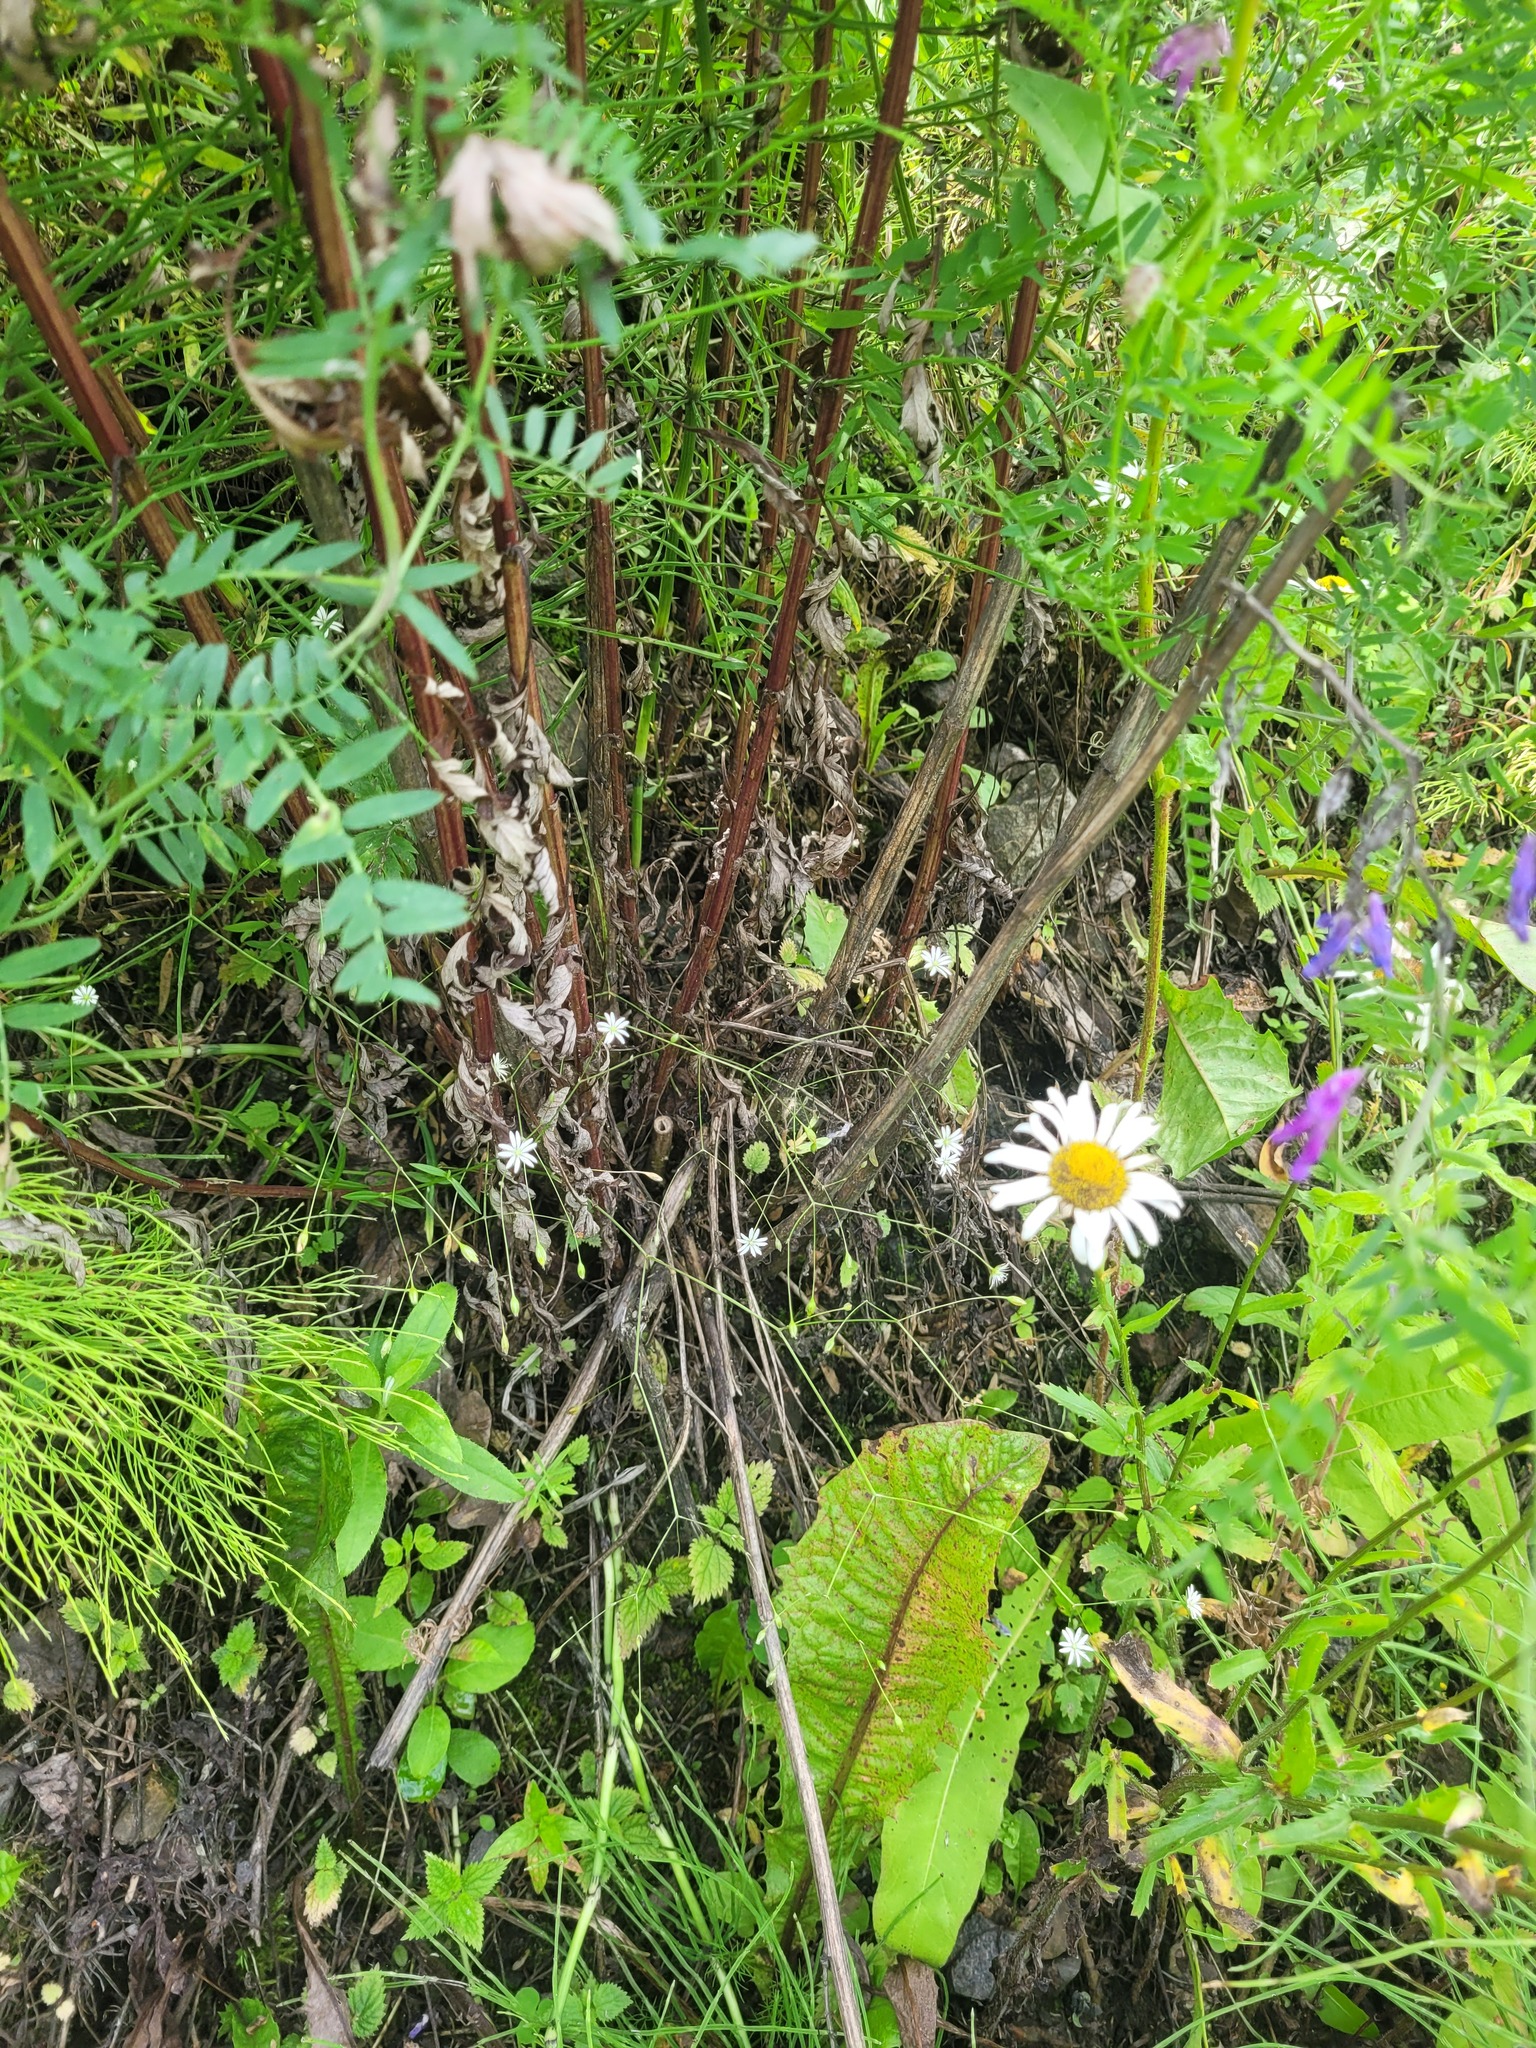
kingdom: Plantae
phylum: Tracheophyta
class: Magnoliopsida
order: Caryophyllales
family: Caryophyllaceae
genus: Stellaria
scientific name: Stellaria graminea
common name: Grass-like starwort
